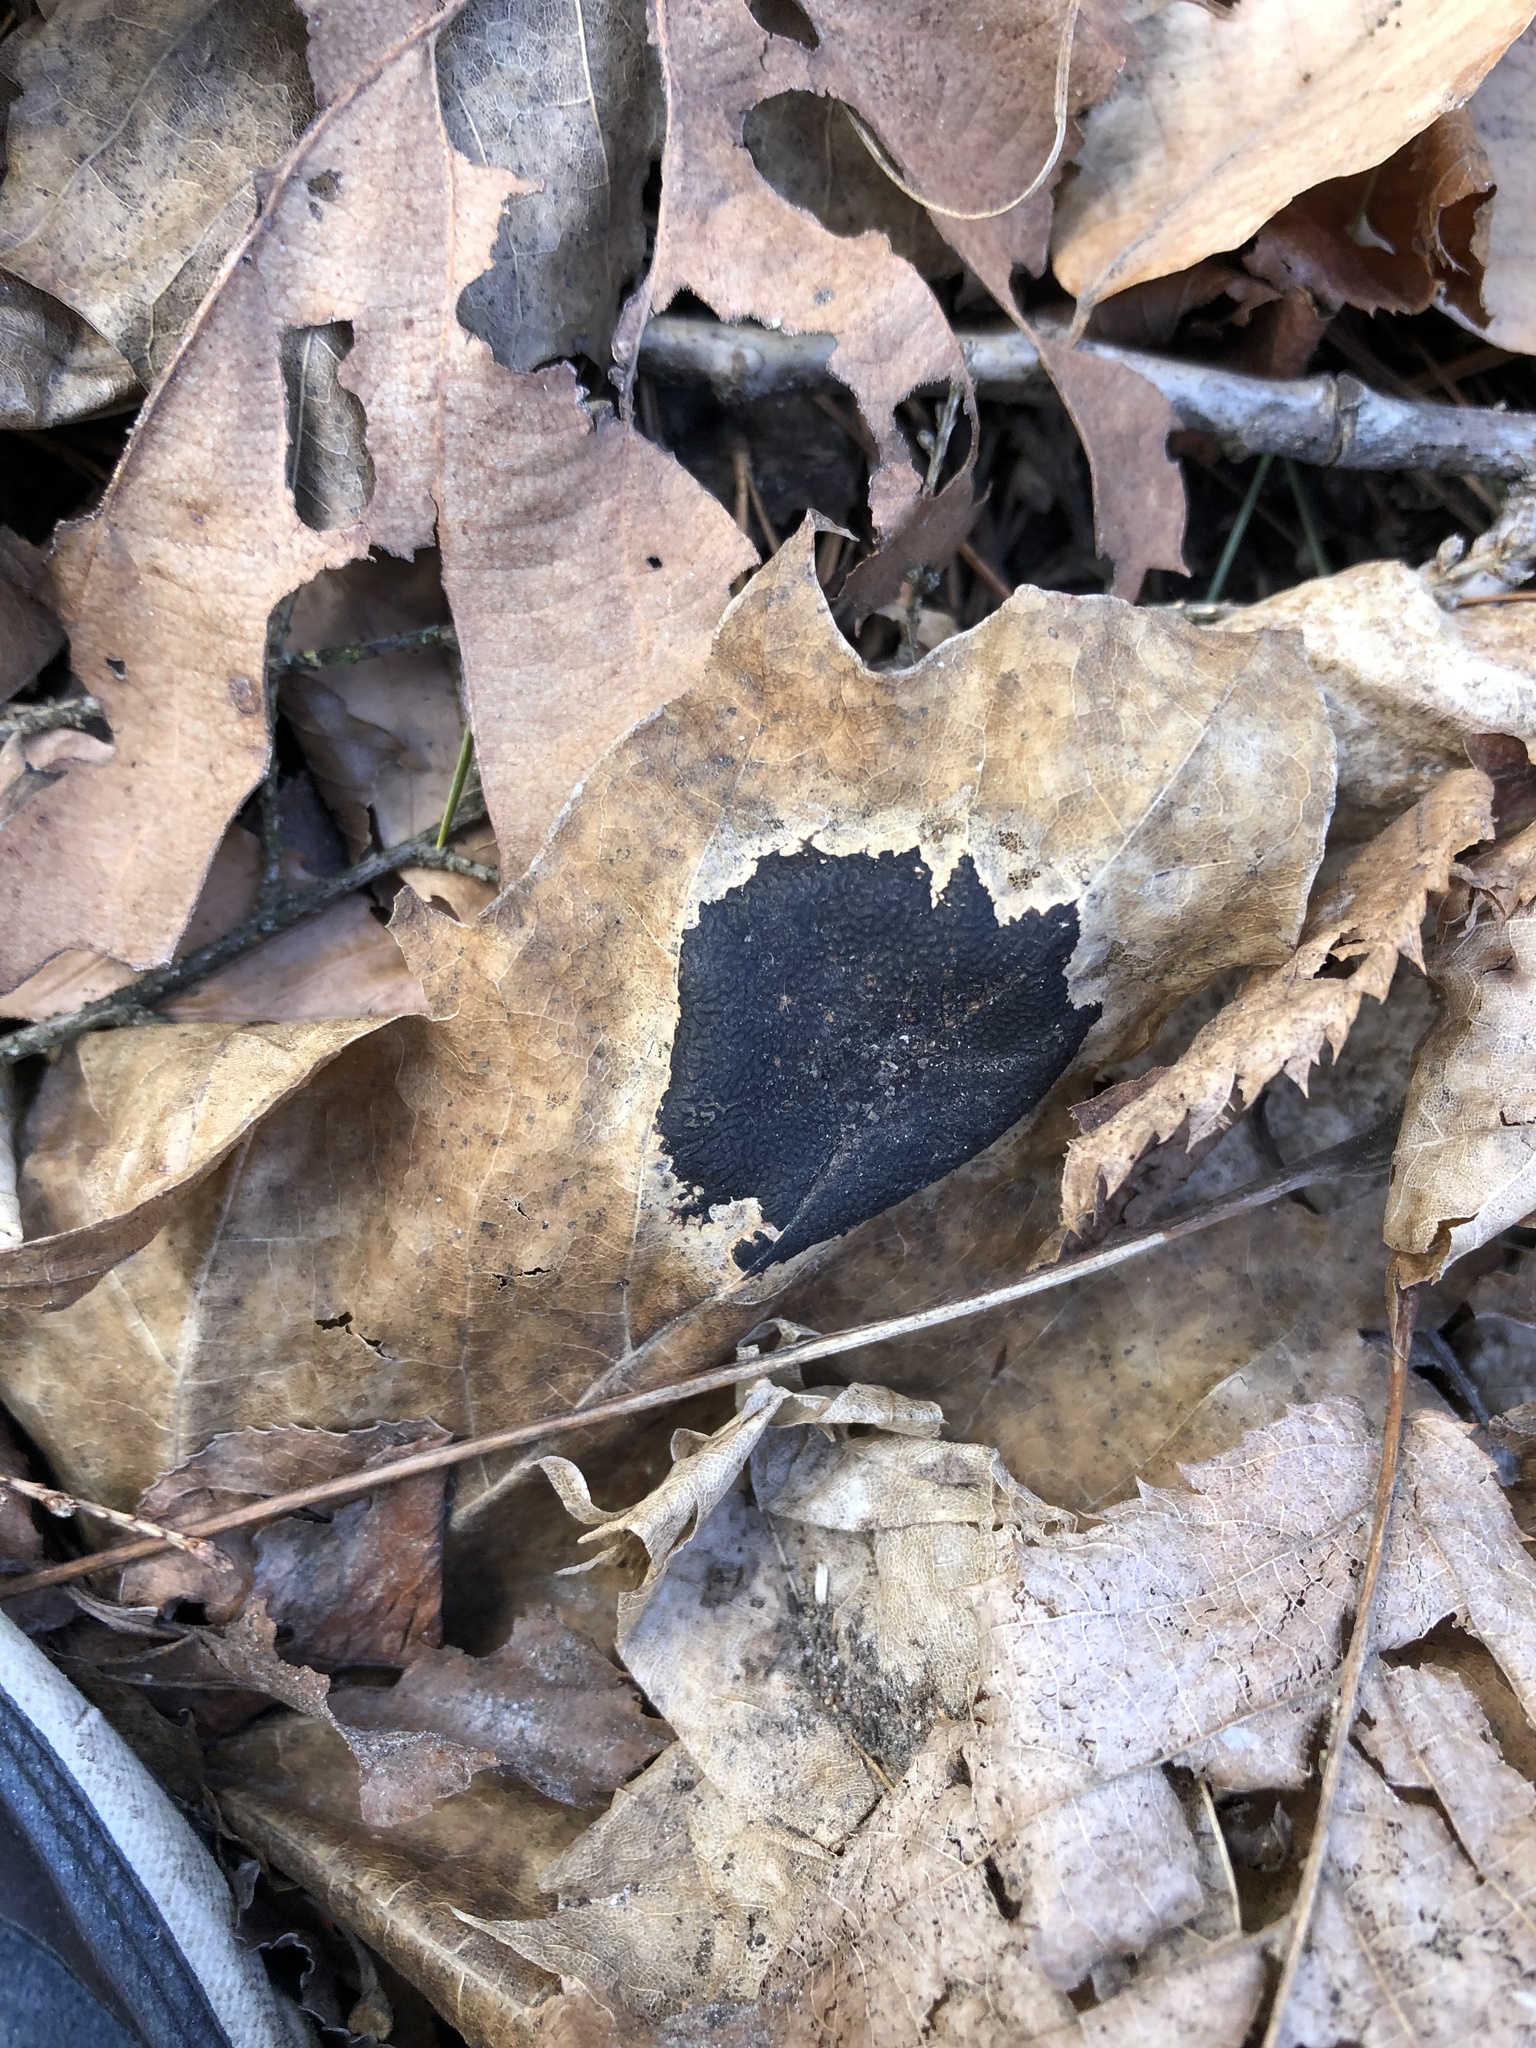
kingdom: Fungi
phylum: Ascomycota
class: Leotiomycetes
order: Rhytismatales
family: Rhytismataceae
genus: Rhytisma
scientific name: Rhytisma acerinum
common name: European tar spot
